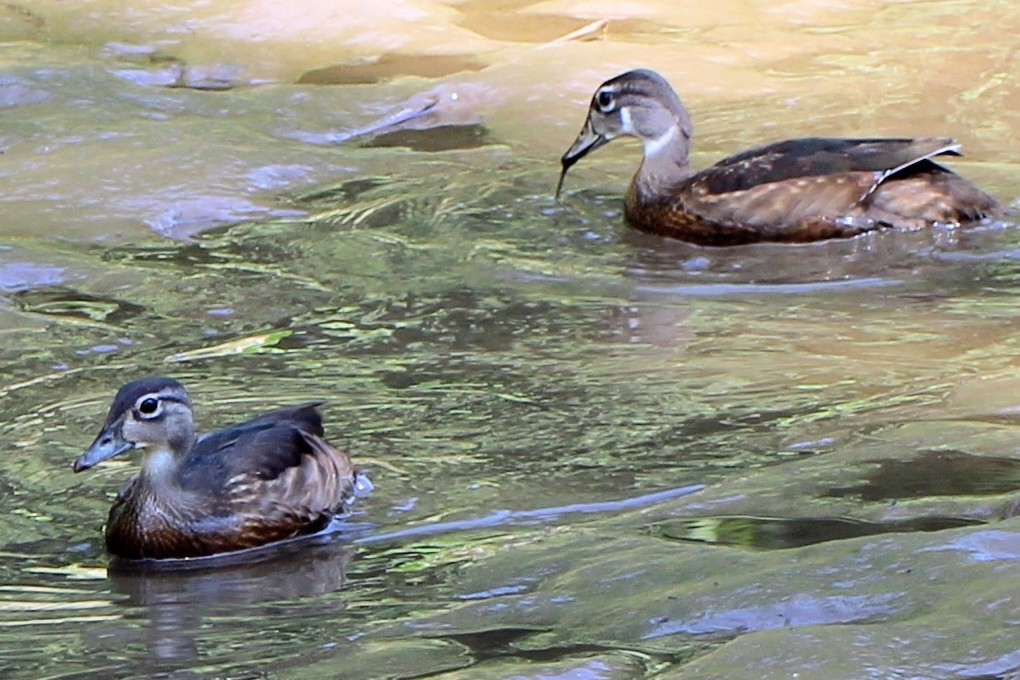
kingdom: Animalia
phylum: Chordata
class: Aves
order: Anseriformes
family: Anatidae
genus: Aix
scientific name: Aix sponsa
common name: Wood duck
